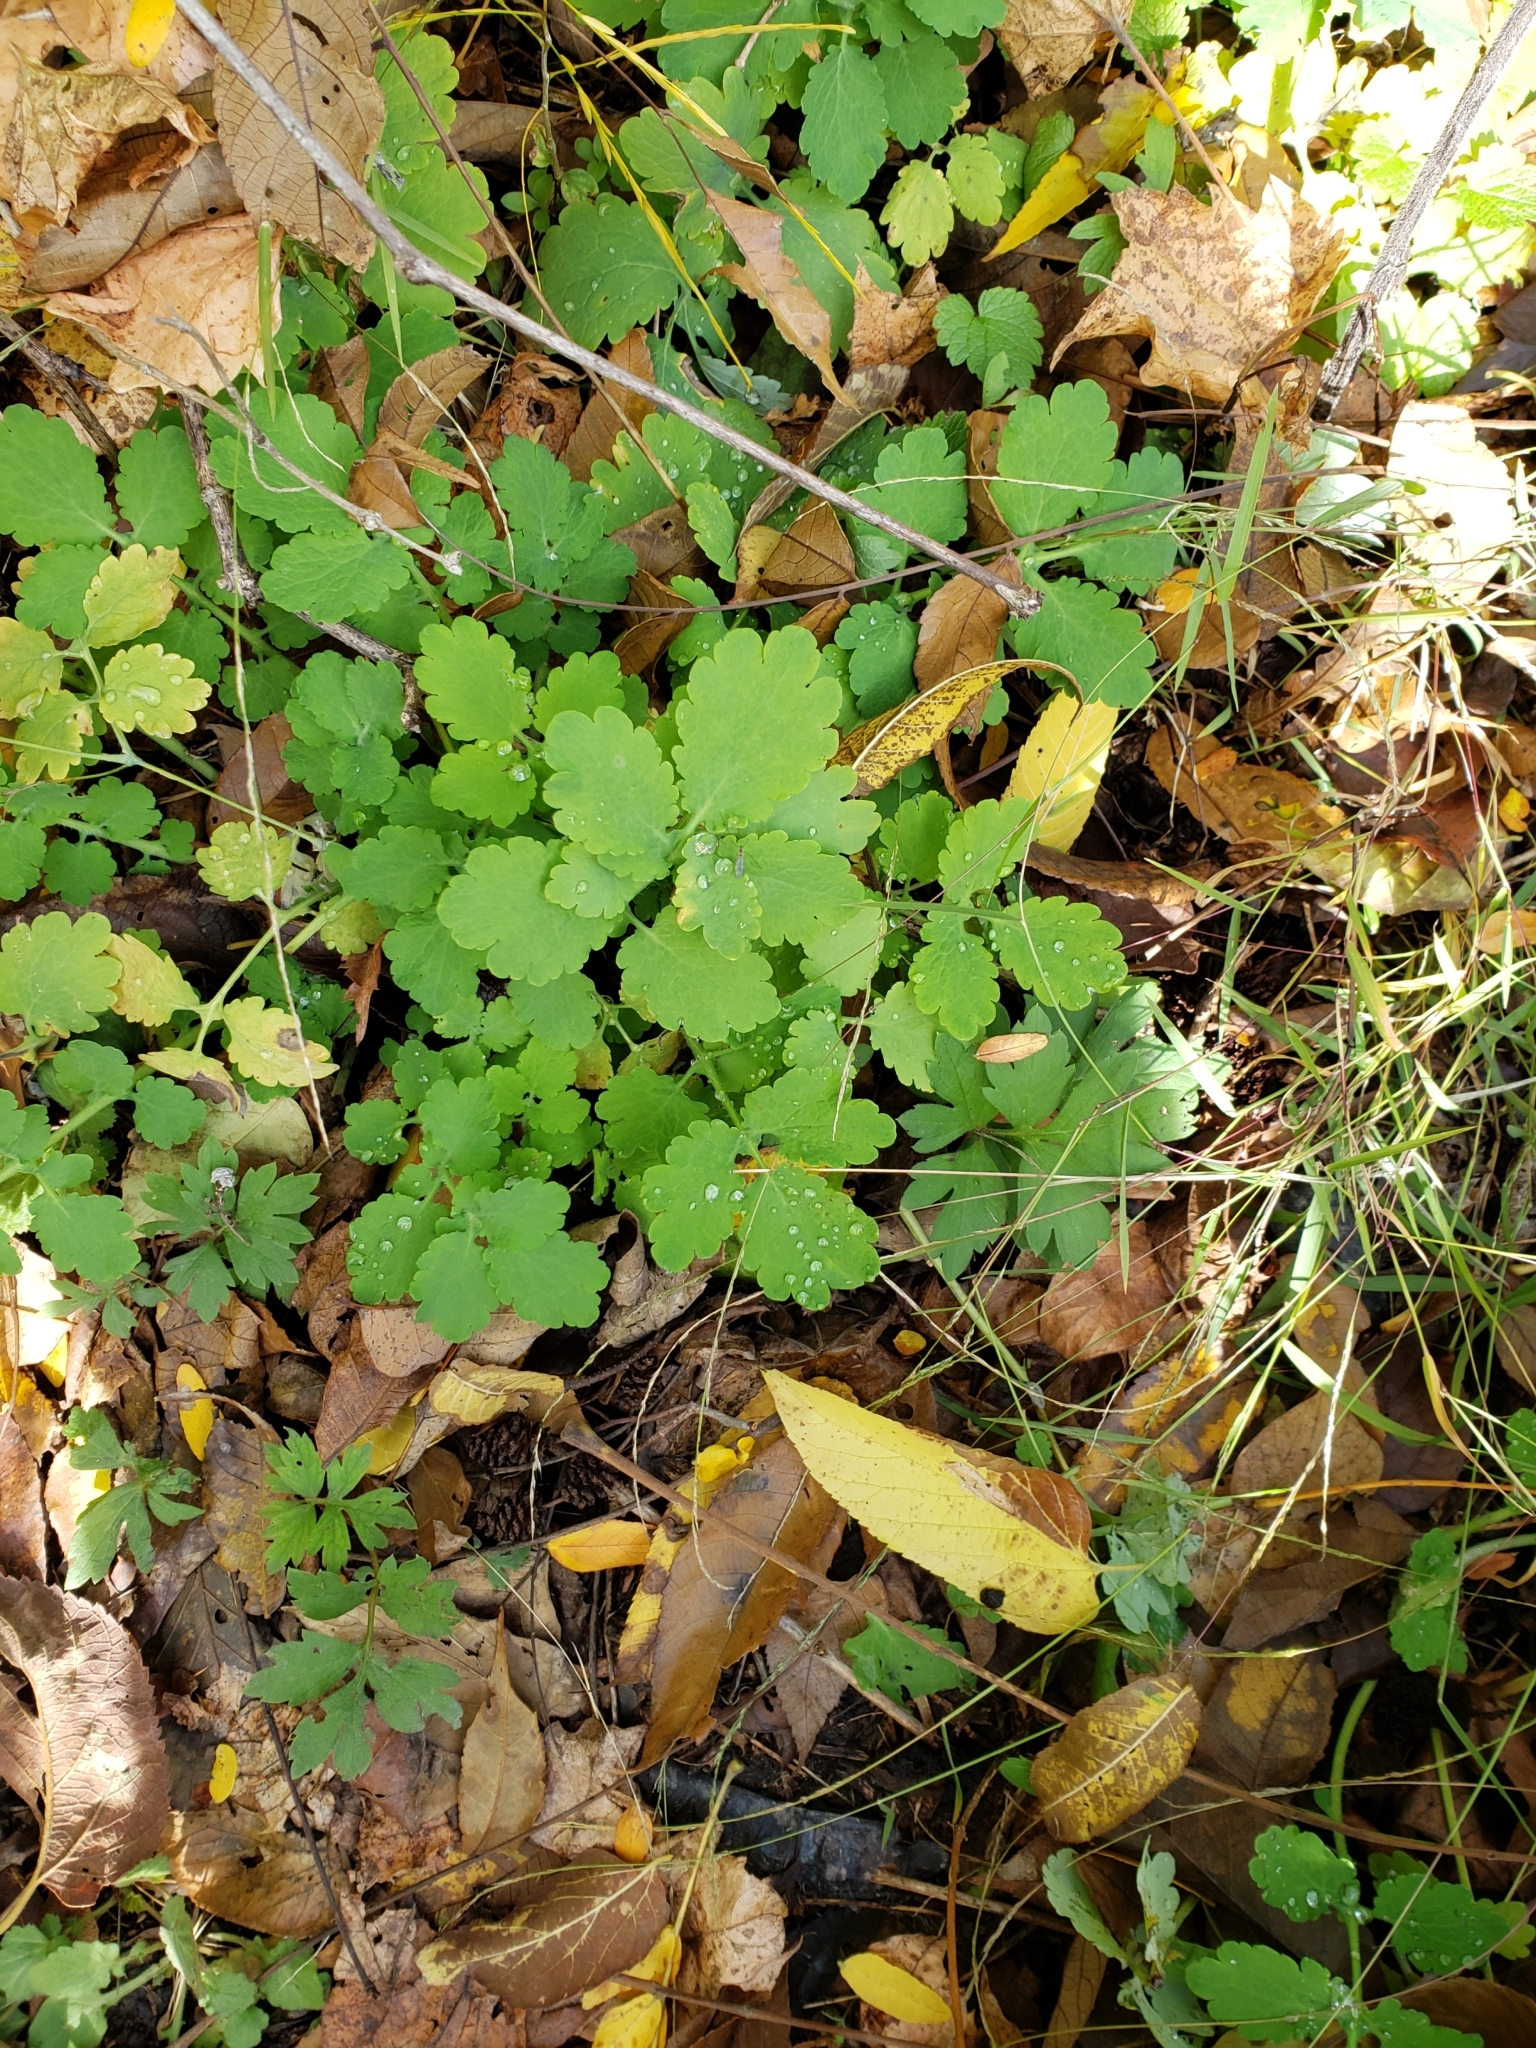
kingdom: Plantae
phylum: Tracheophyta
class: Magnoliopsida
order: Ranunculales
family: Papaveraceae
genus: Chelidonium
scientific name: Chelidonium majus
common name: Greater celandine
